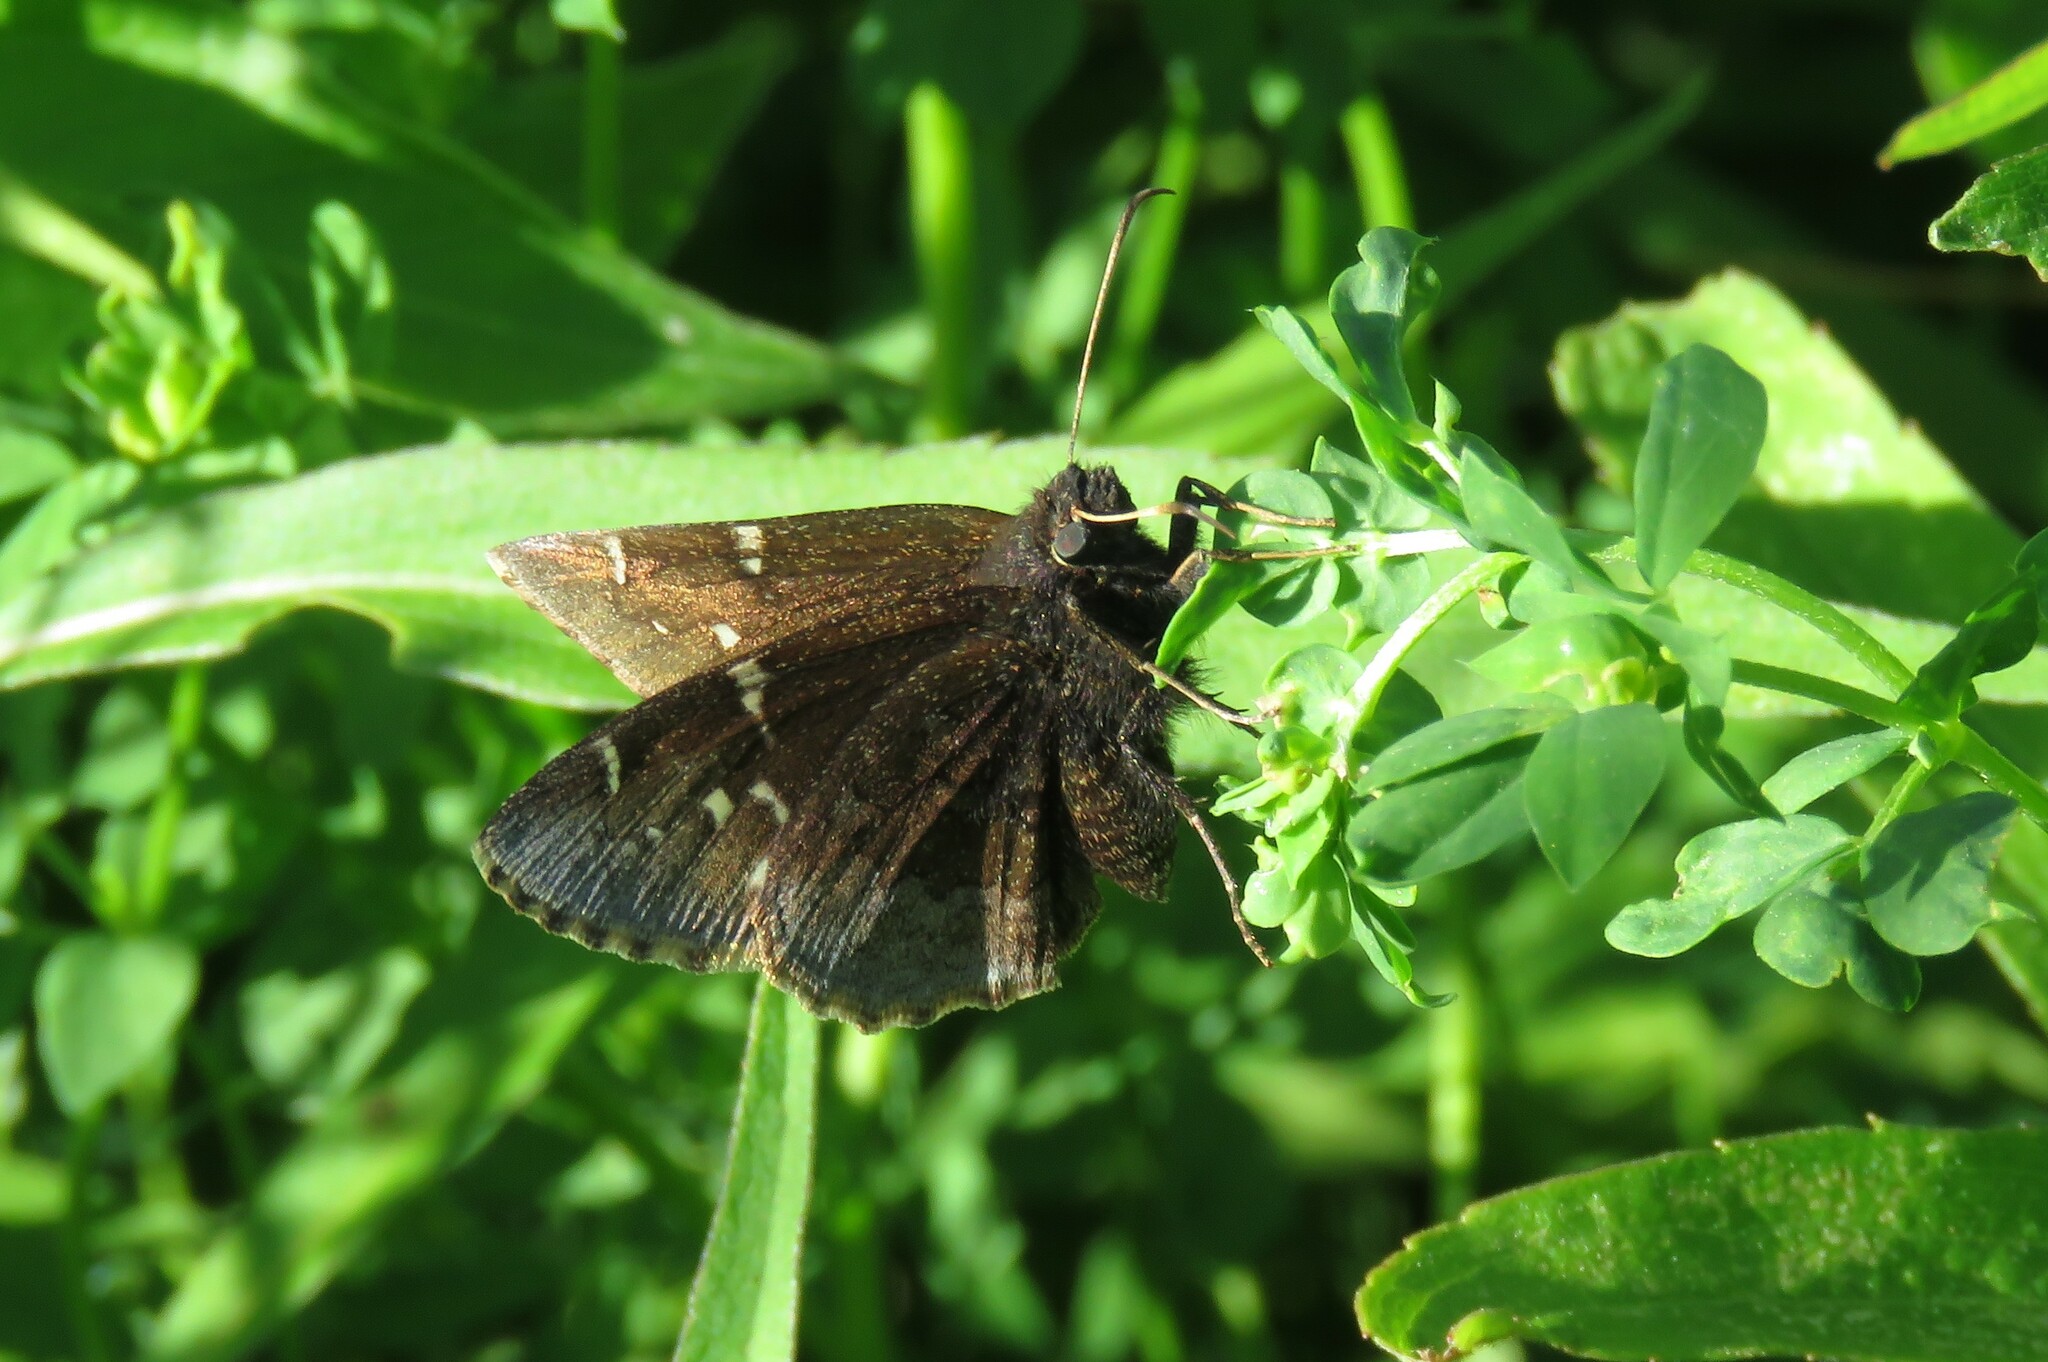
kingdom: Animalia
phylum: Arthropoda
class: Insecta
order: Lepidoptera
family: Hesperiidae
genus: Thorybes
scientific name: Thorybes pylades
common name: Northern cloudywing
